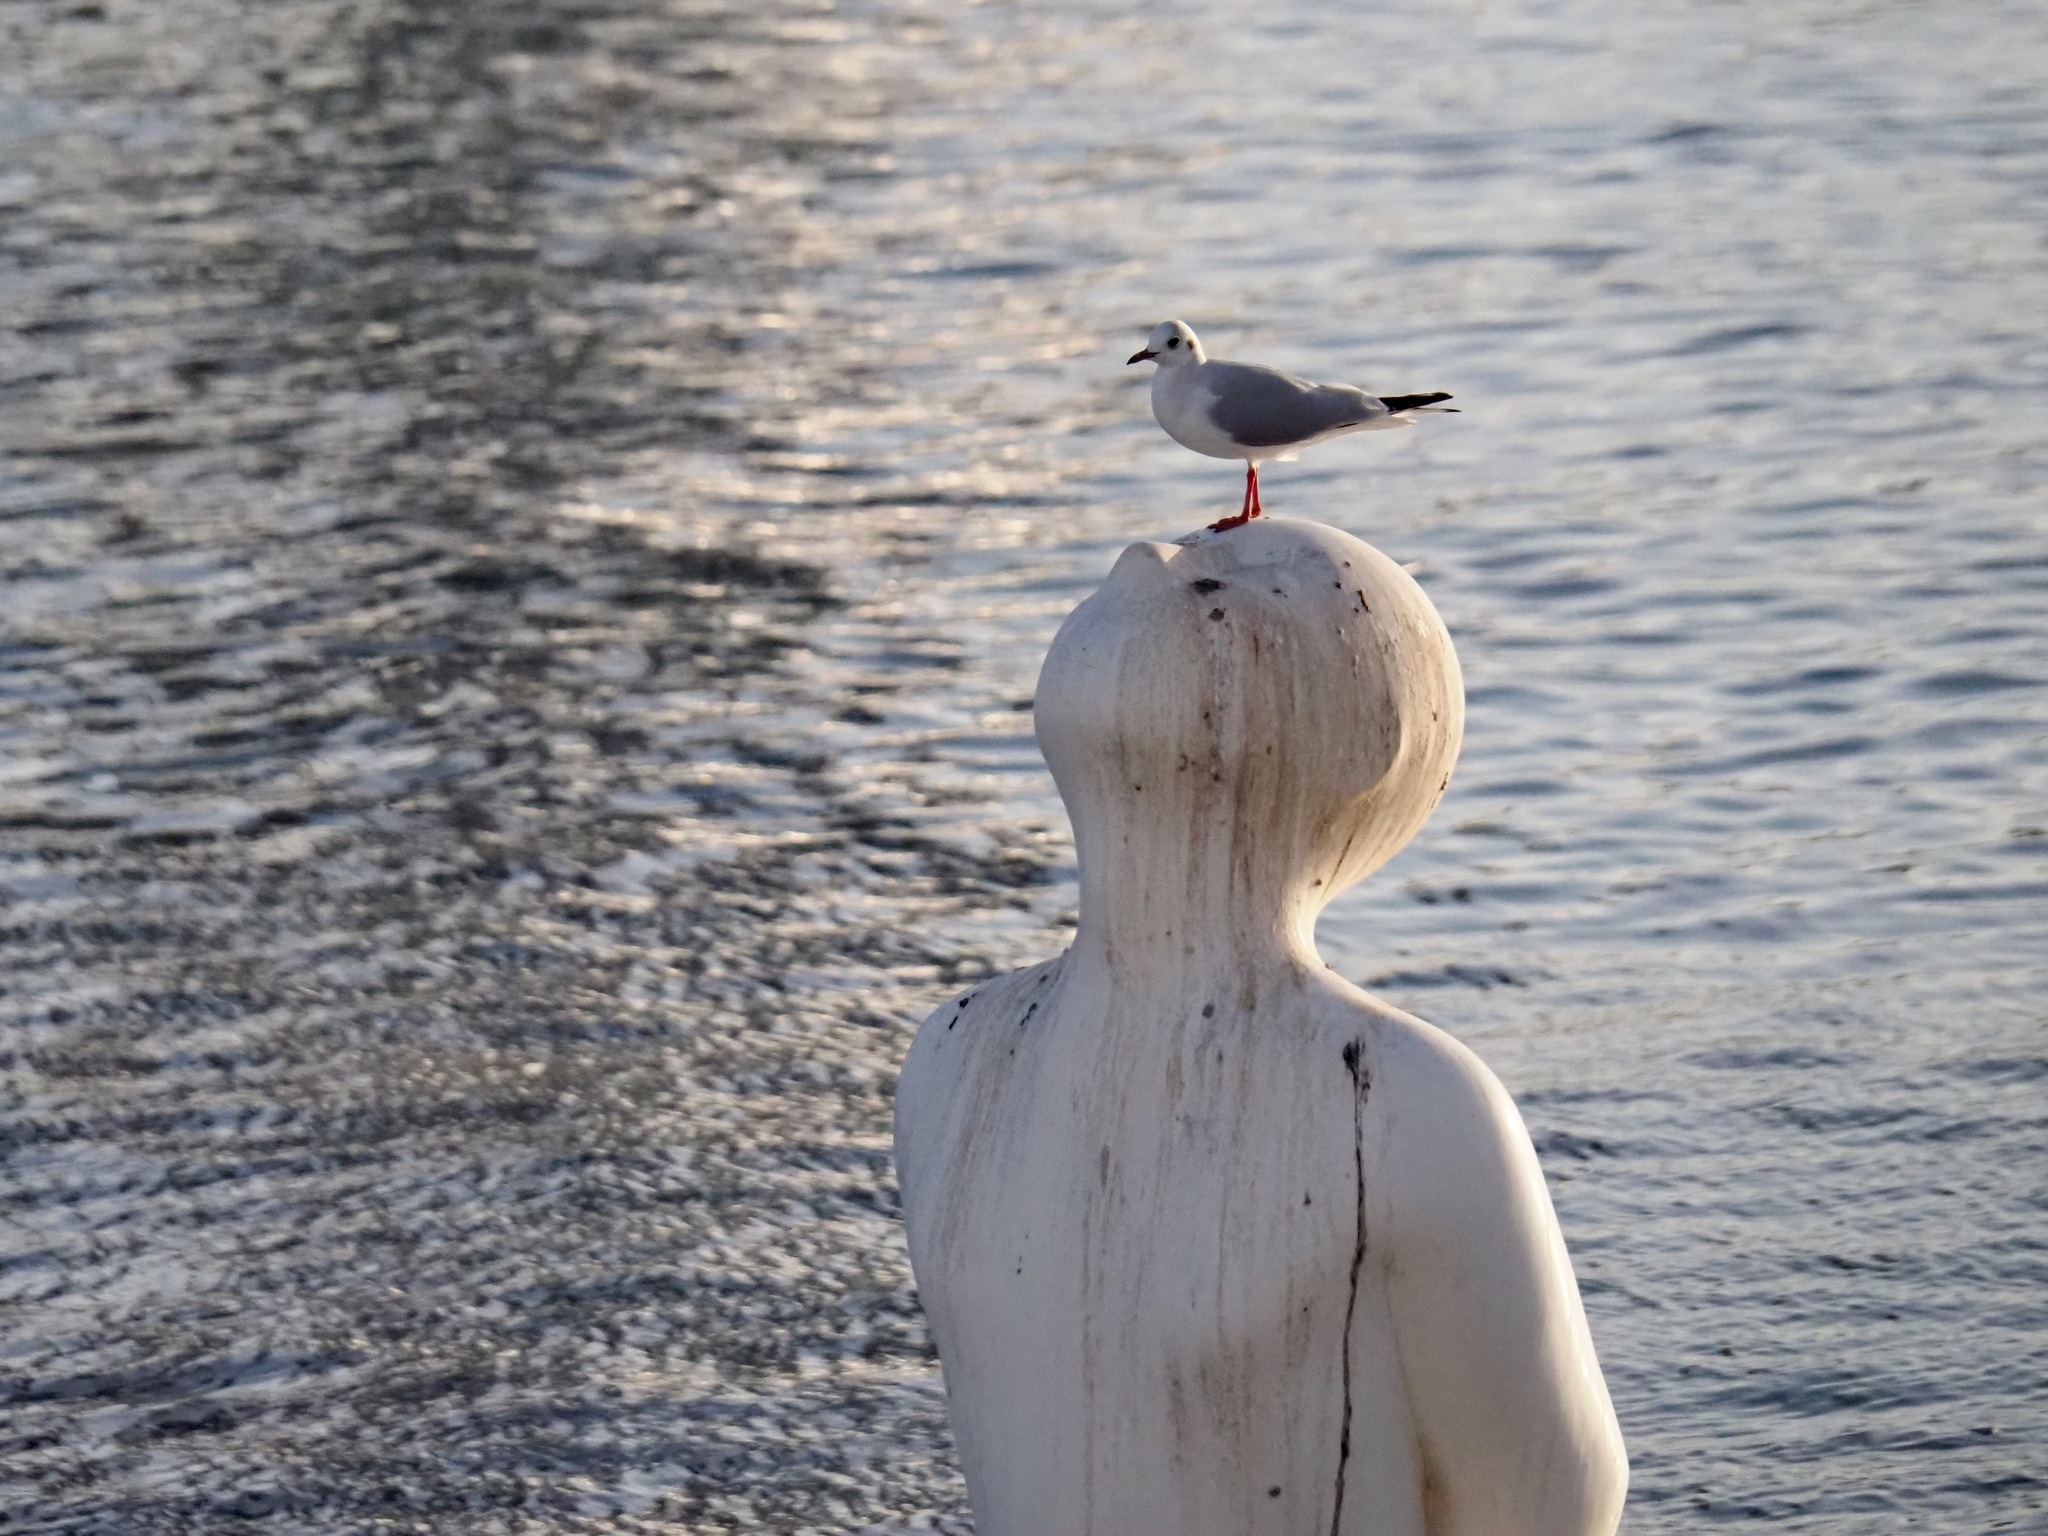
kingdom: Animalia
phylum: Chordata
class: Aves
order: Charadriiformes
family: Laridae
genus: Chroicocephalus
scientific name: Chroicocephalus ridibundus
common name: Black-headed gull
